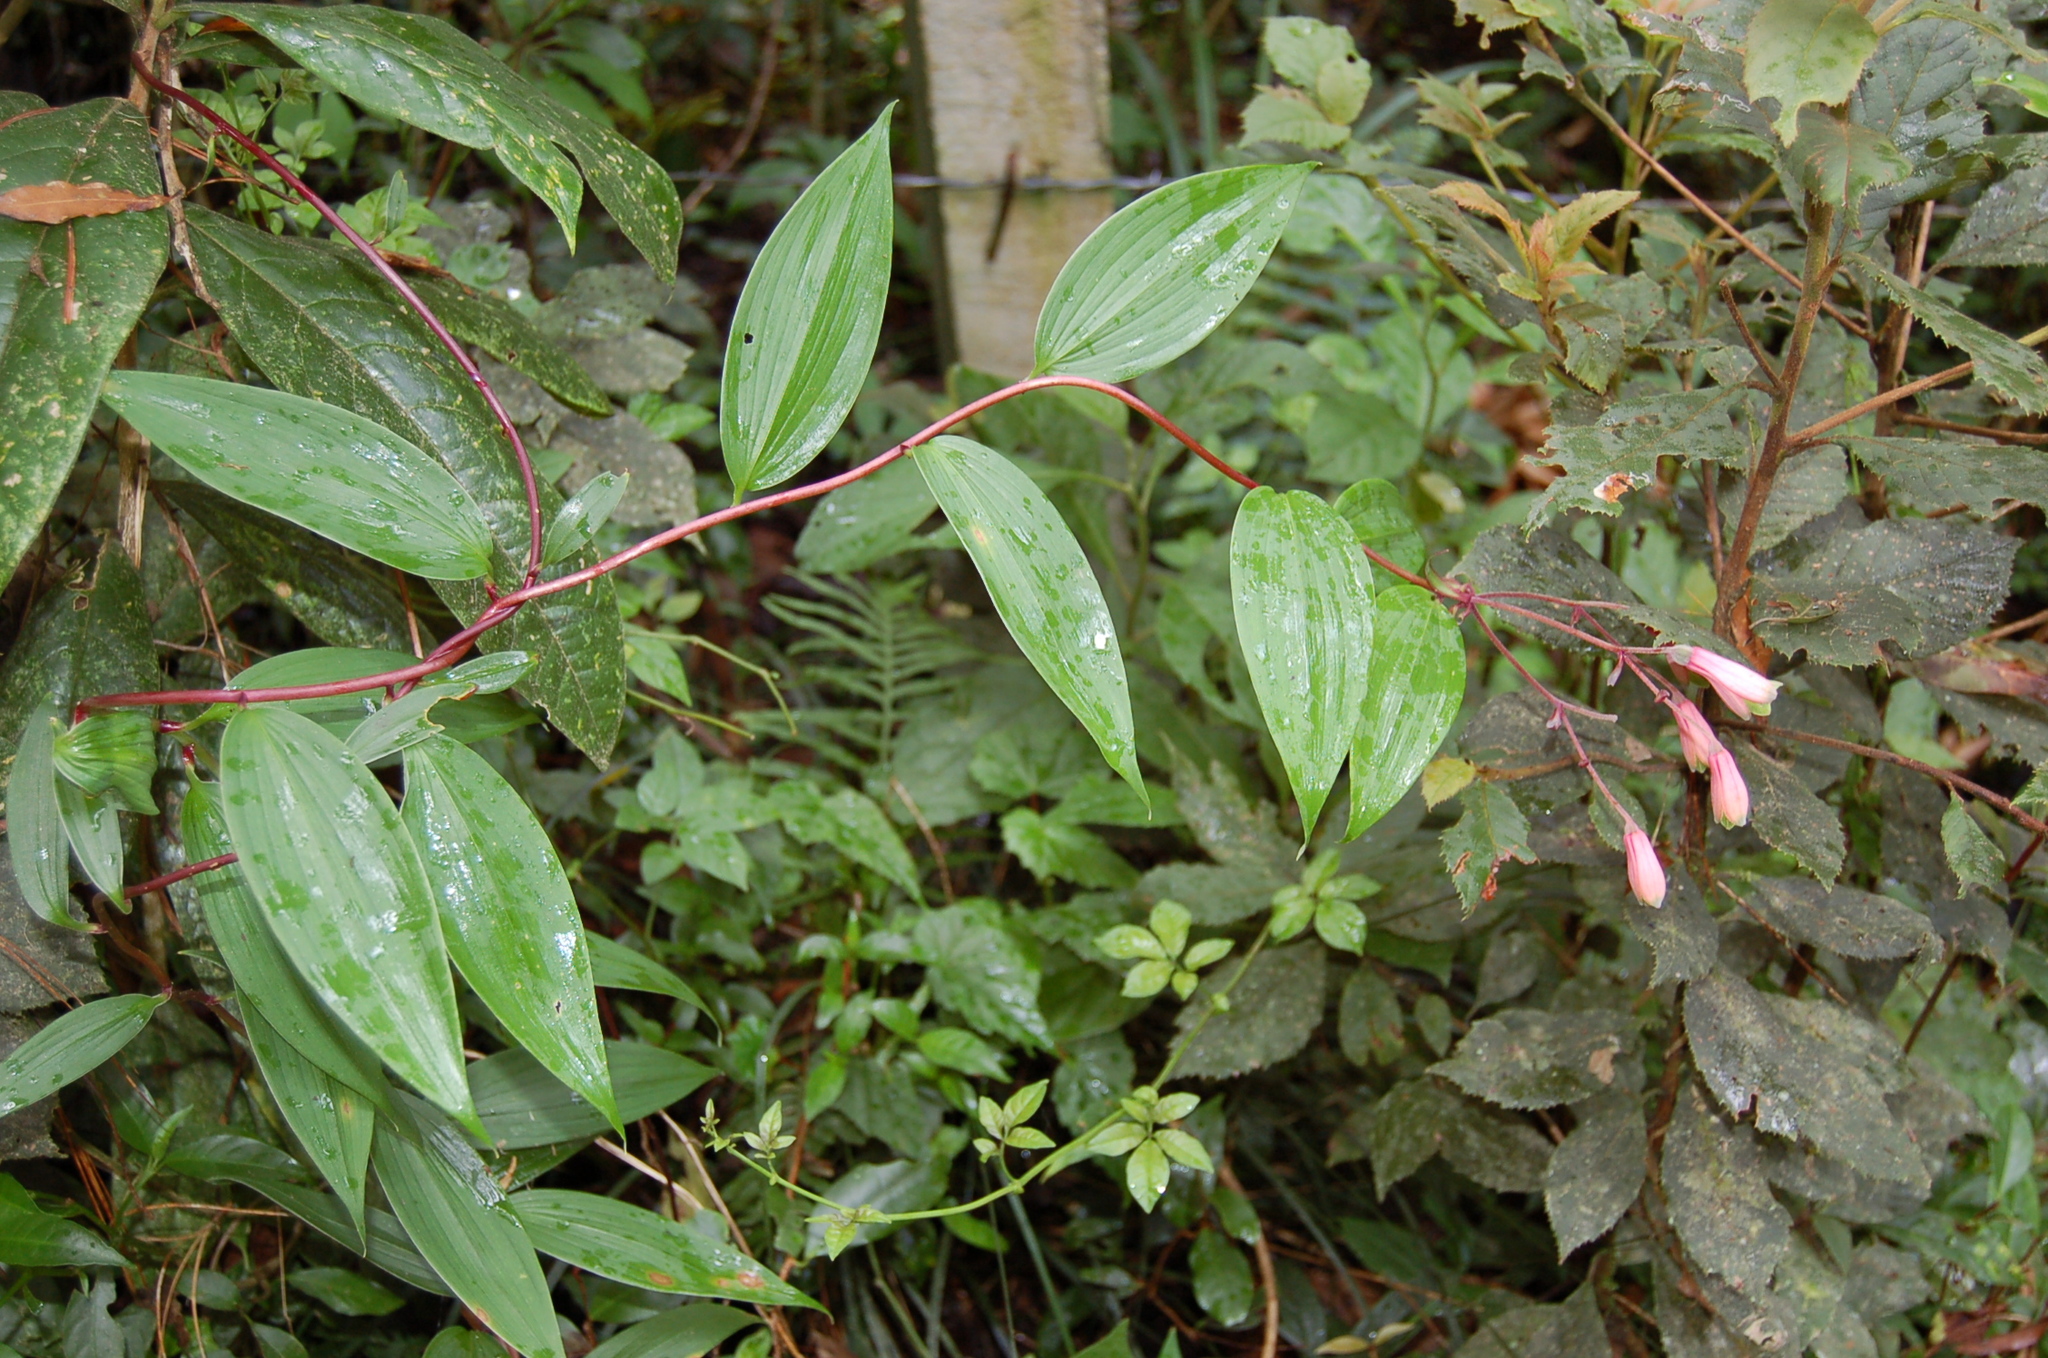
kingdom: Plantae
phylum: Tracheophyta
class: Liliopsida
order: Liliales
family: Alstroemeriaceae
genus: Bomarea
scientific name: Bomarea edulis
